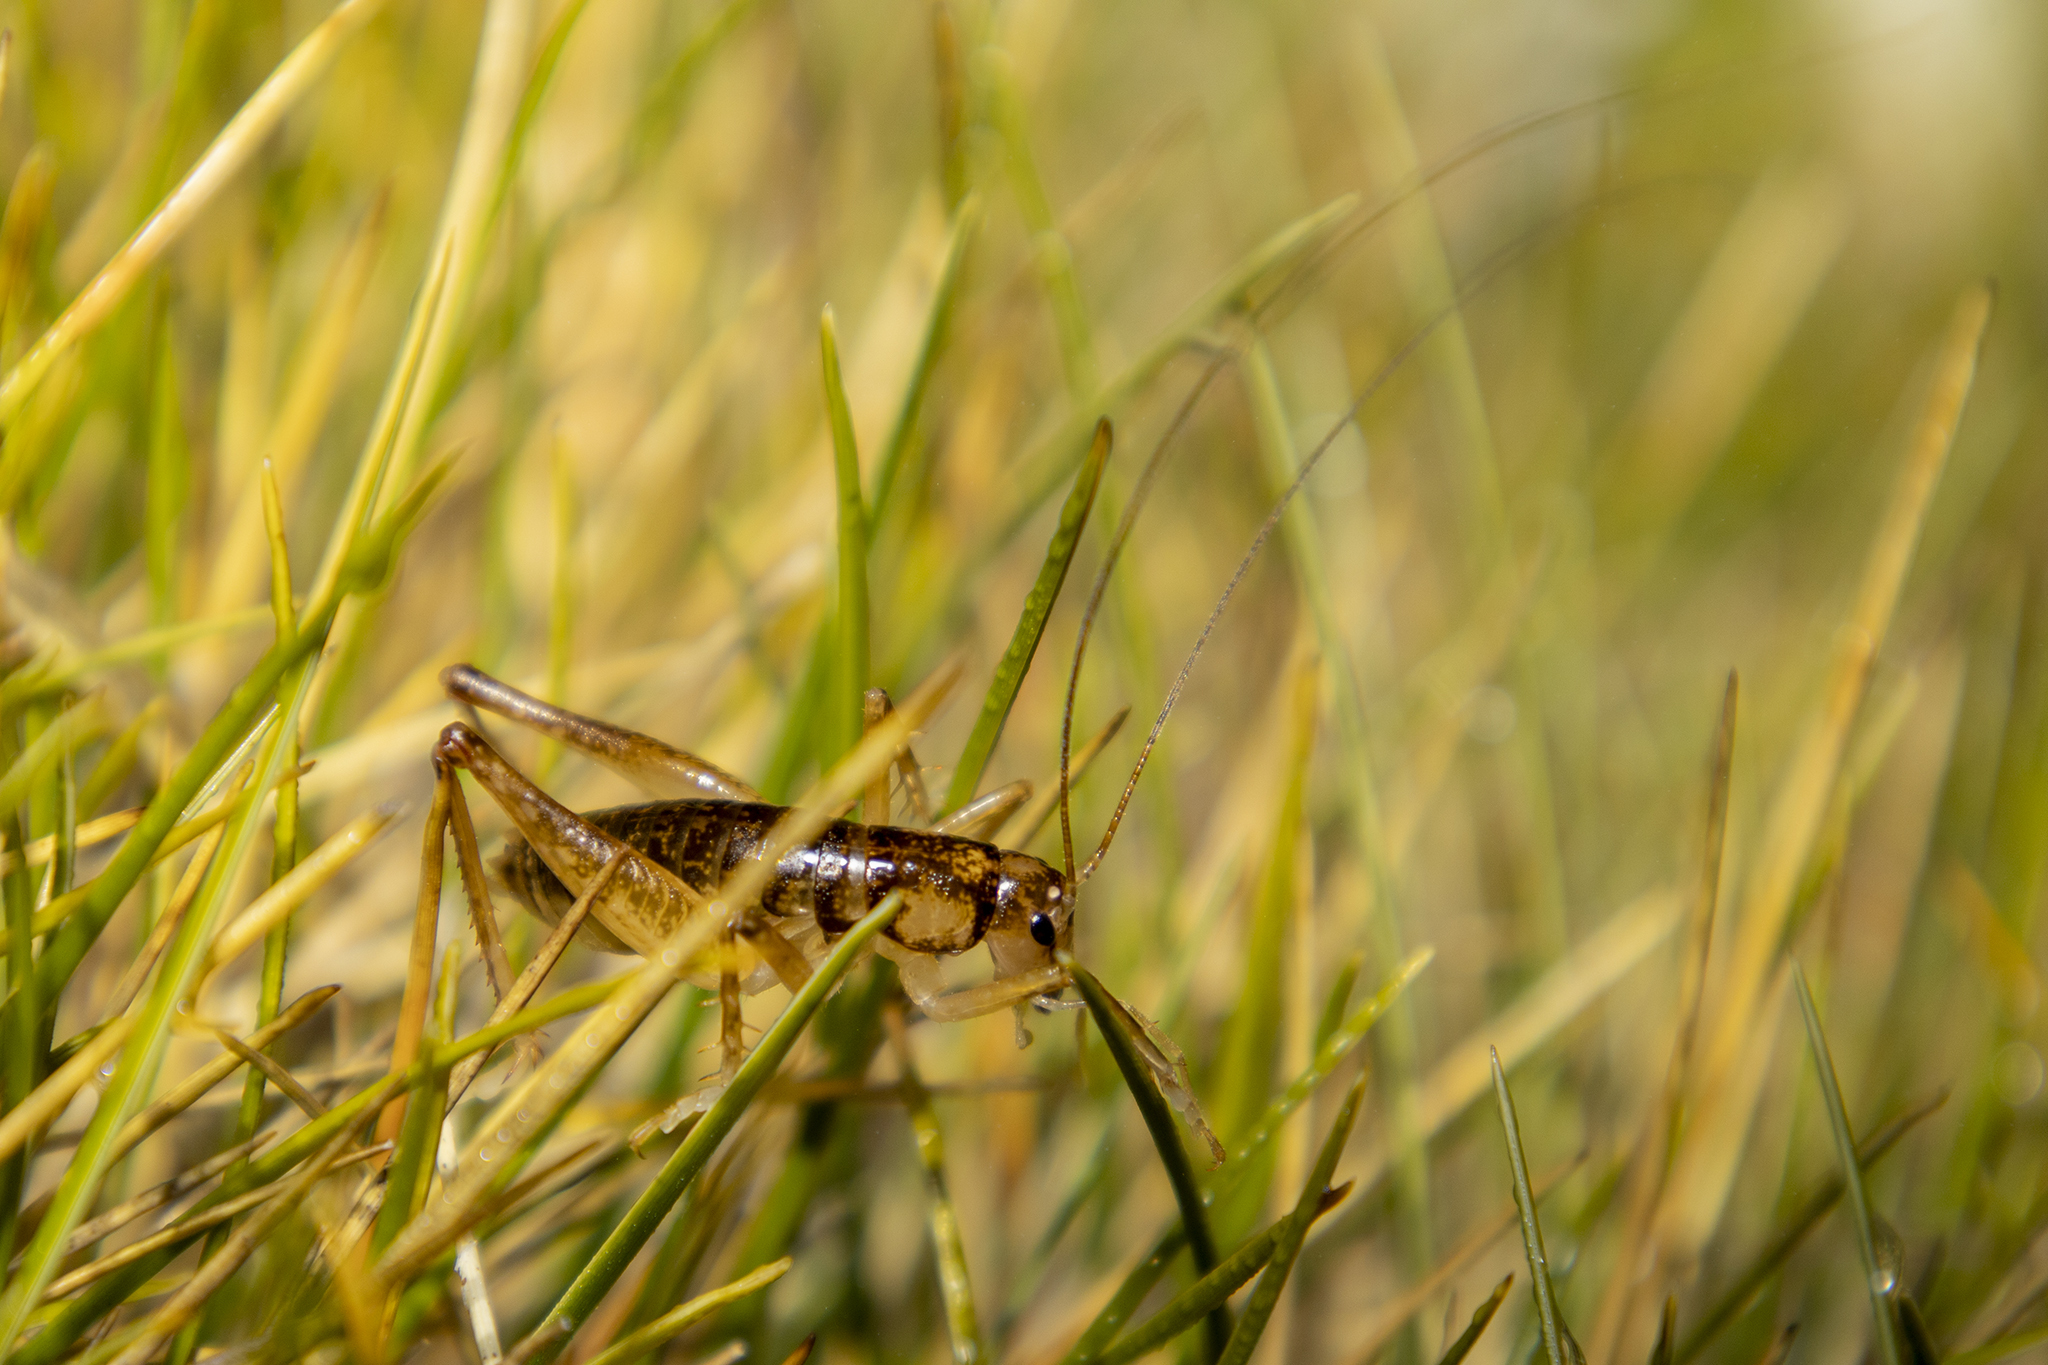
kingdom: Animalia
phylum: Arthropoda
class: Insecta
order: Orthoptera
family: Anostostomatidae
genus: Hemiandrus
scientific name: Hemiandrus maculifrons
